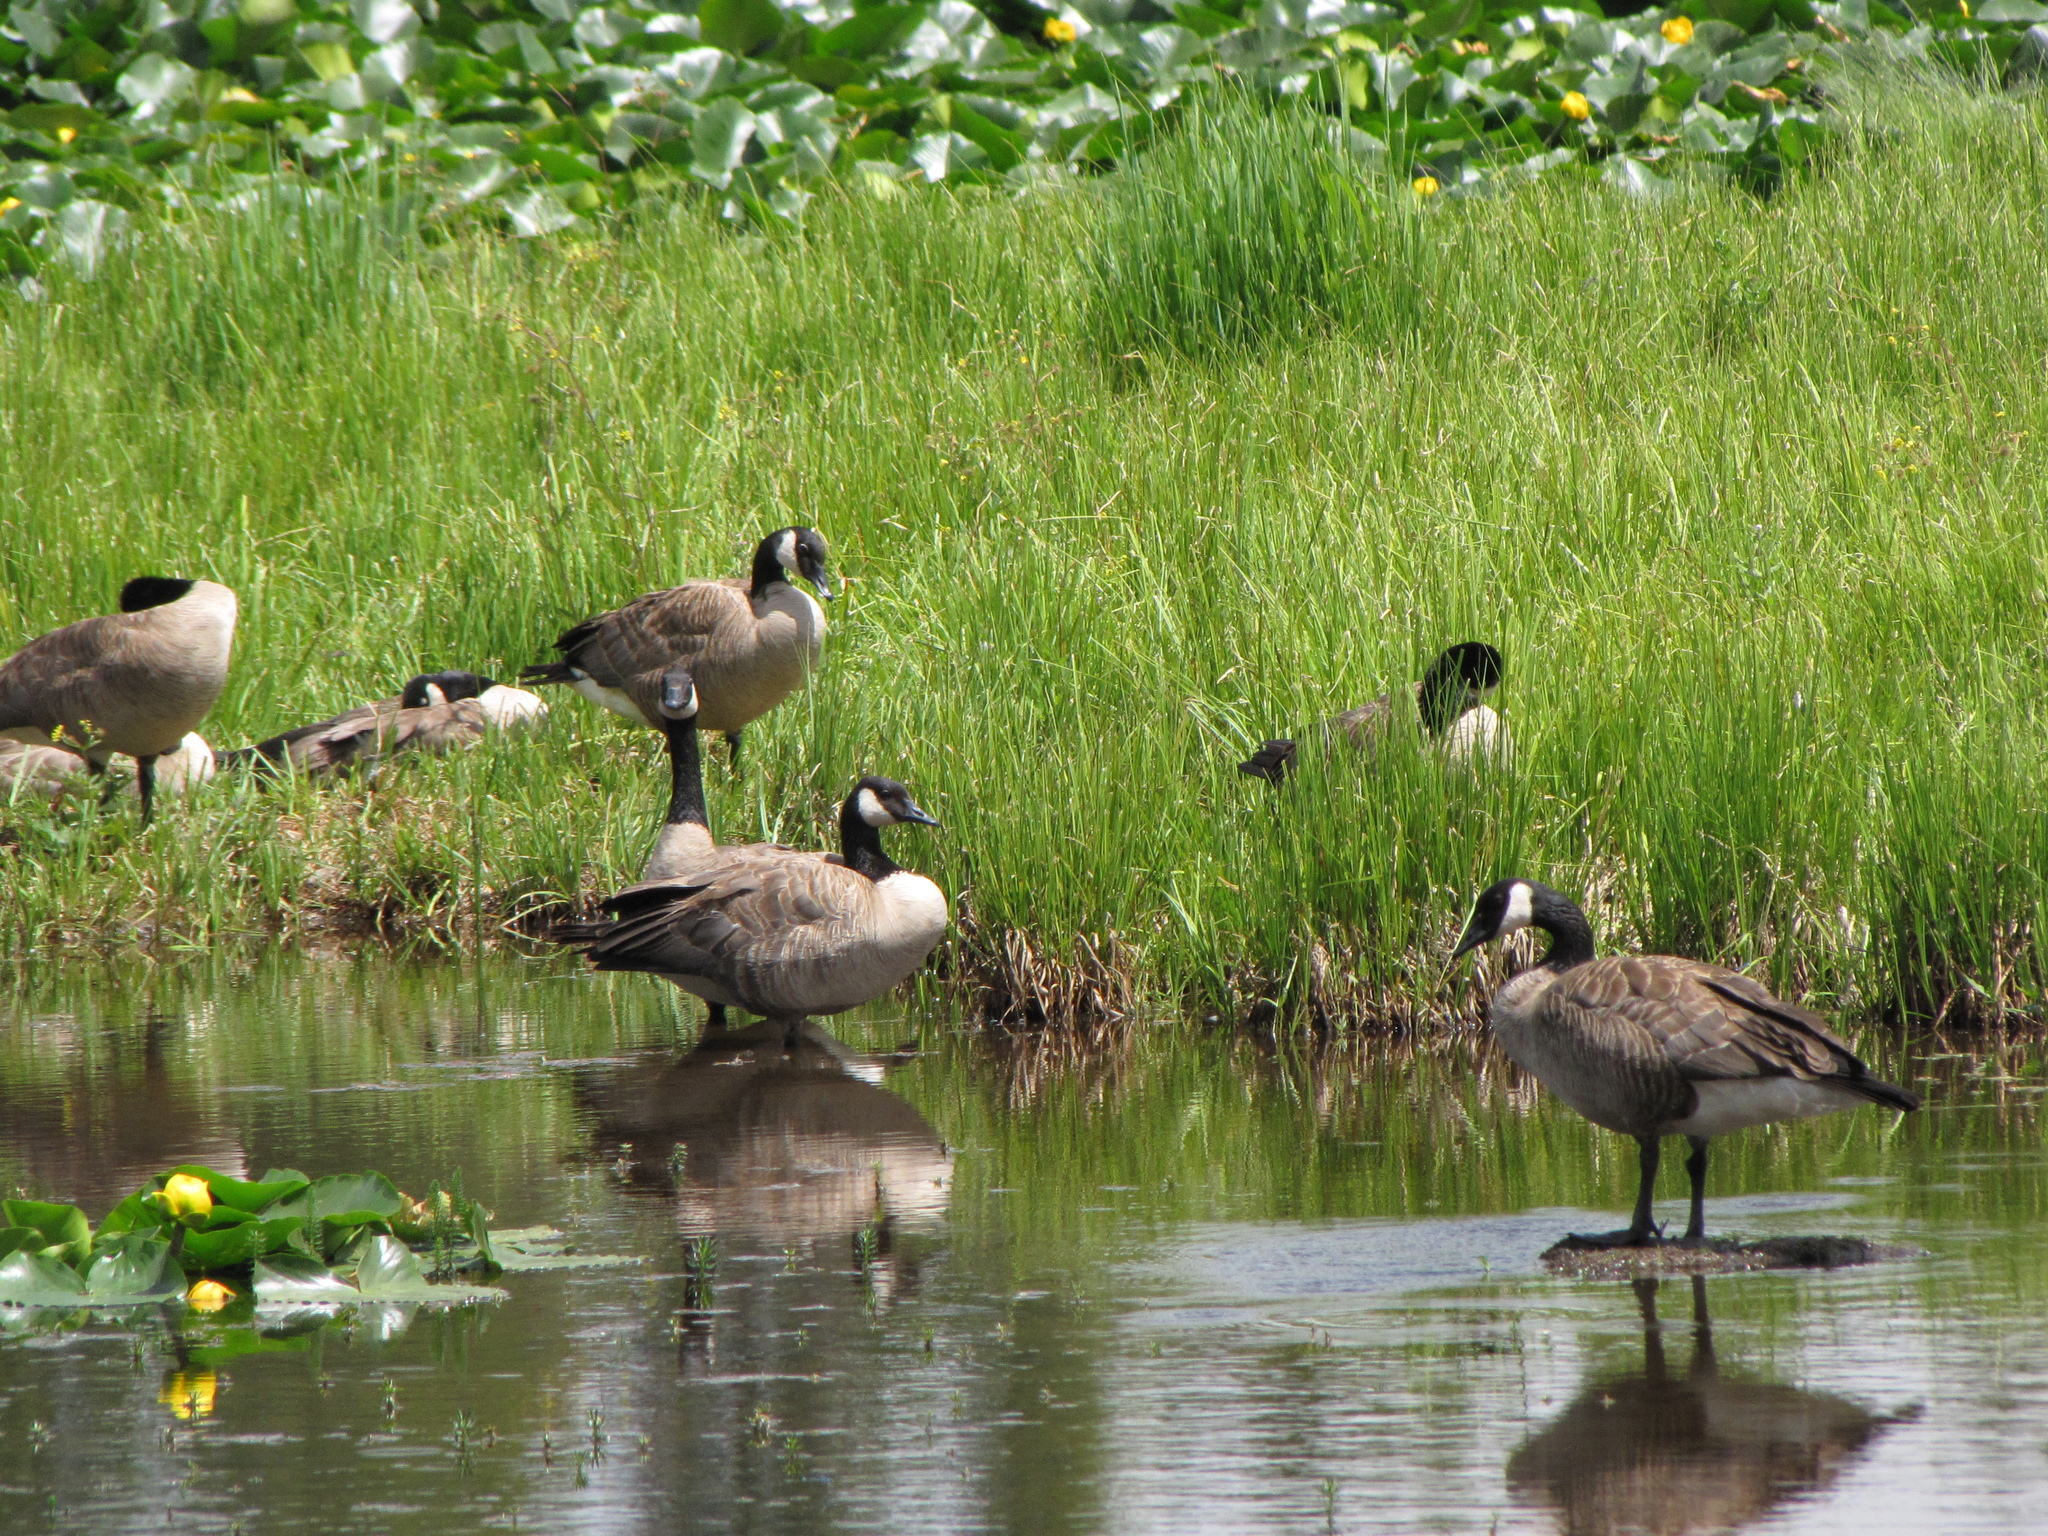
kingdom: Animalia
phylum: Chordata
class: Aves
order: Anseriformes
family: Anatidae
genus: Branta
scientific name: Branta canadensis
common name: Canada goose
